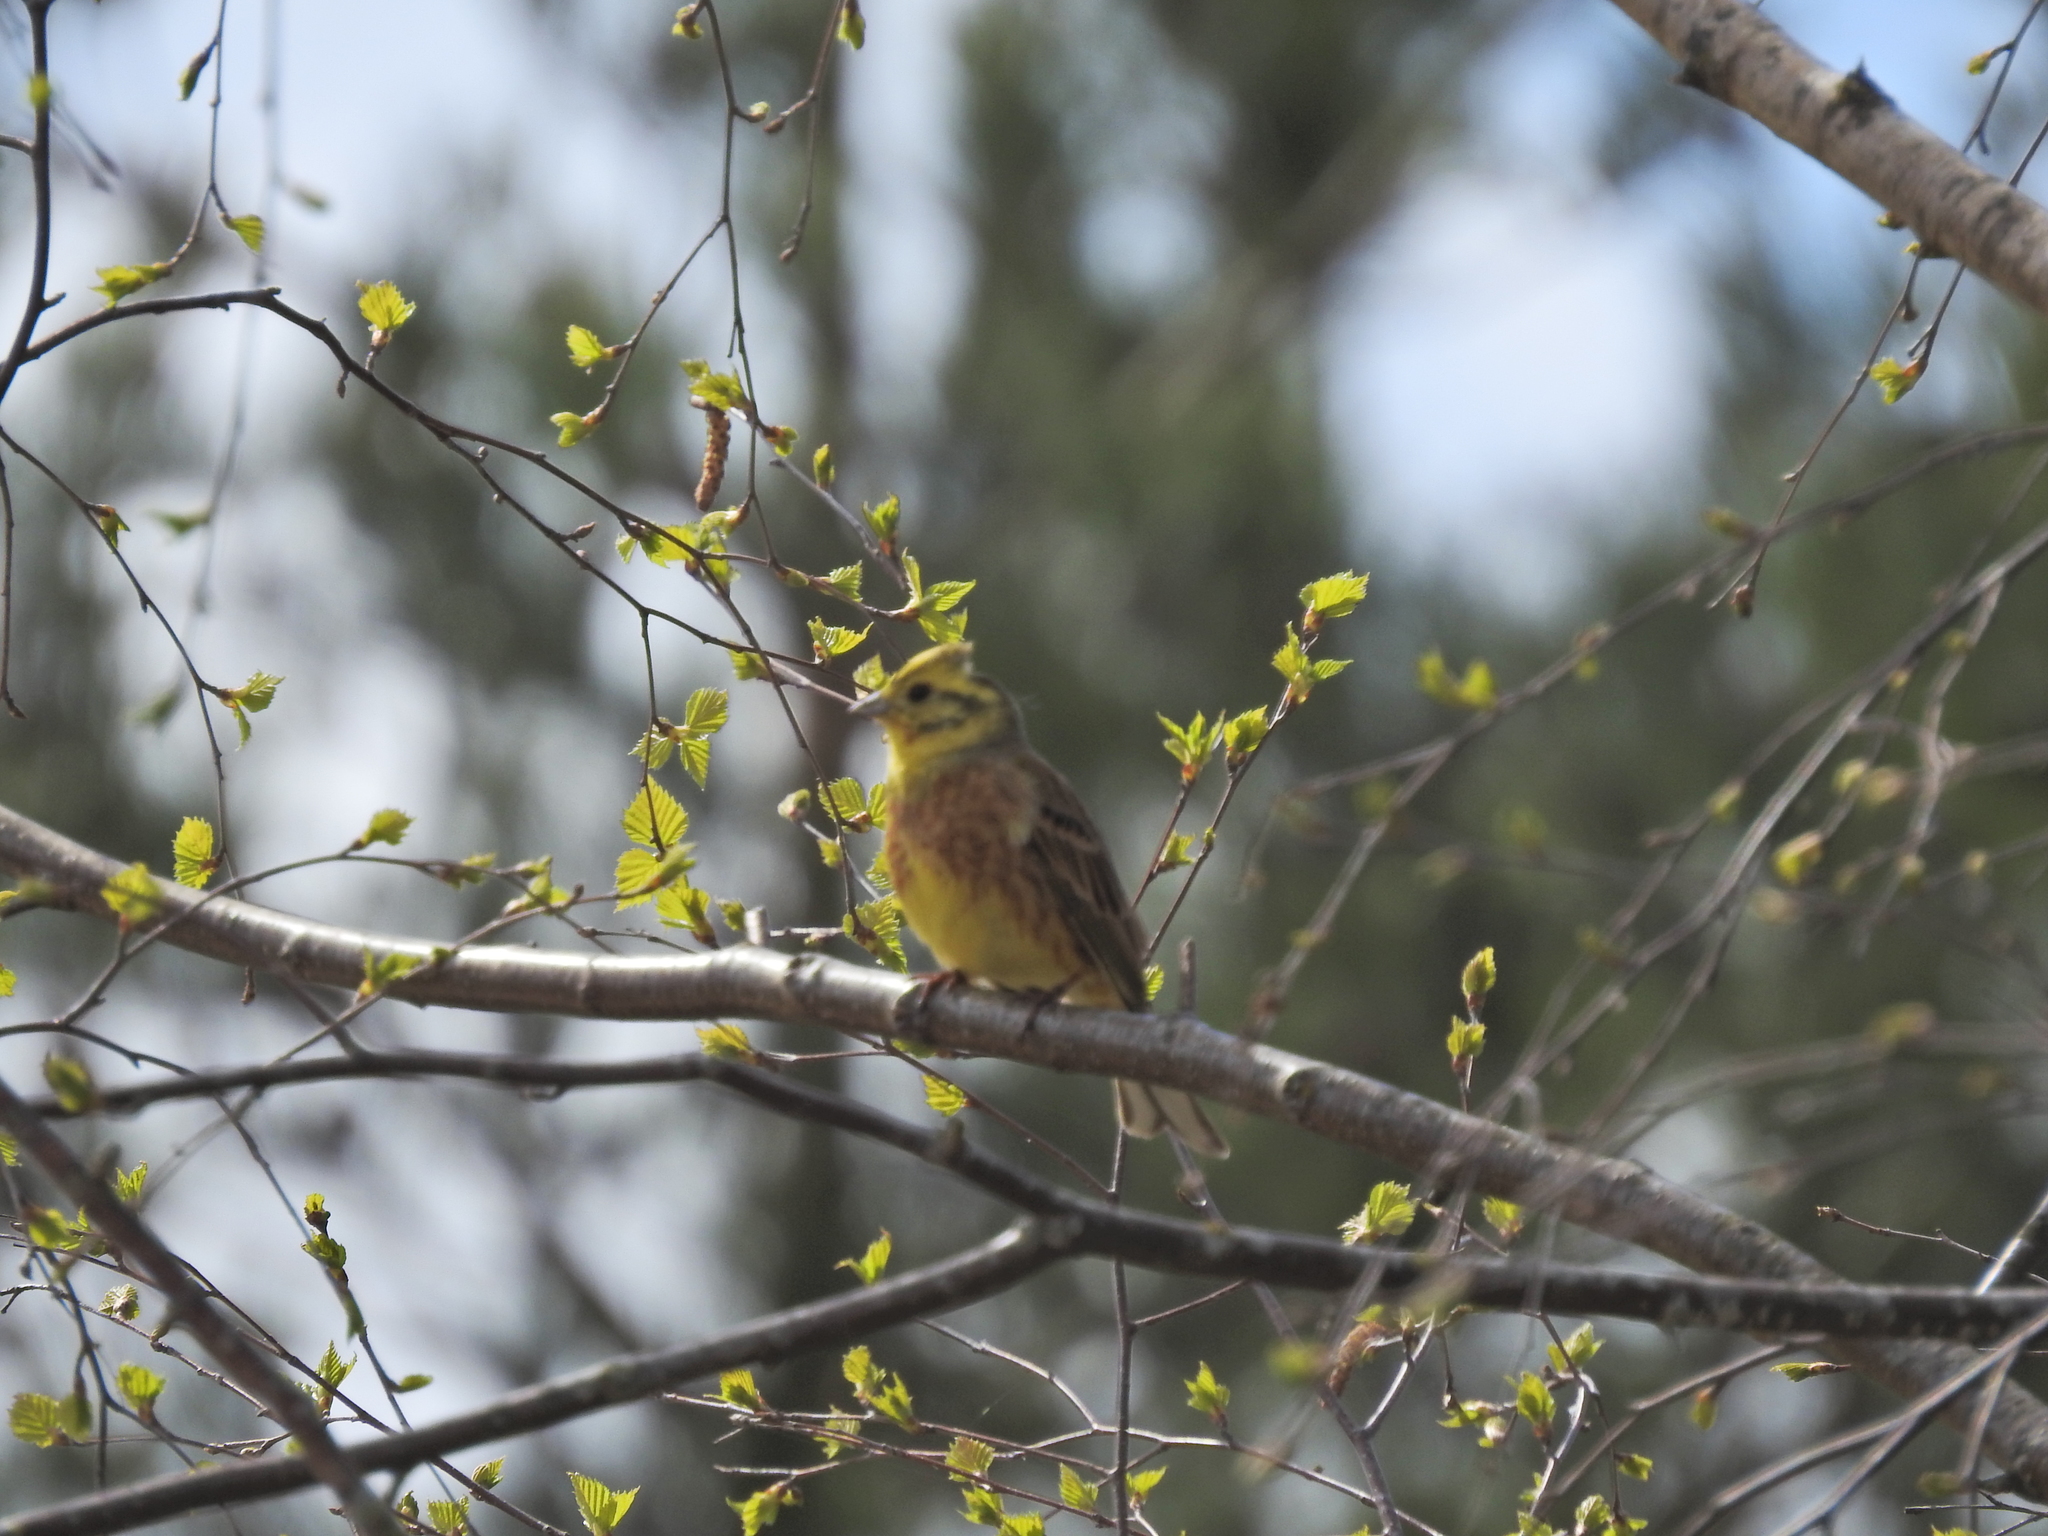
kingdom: Animalia
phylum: Chordata
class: Aves
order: Passeriformes
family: Emberizidae
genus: Emberiza
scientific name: Emberiza citrinella
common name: Yellowhammer
